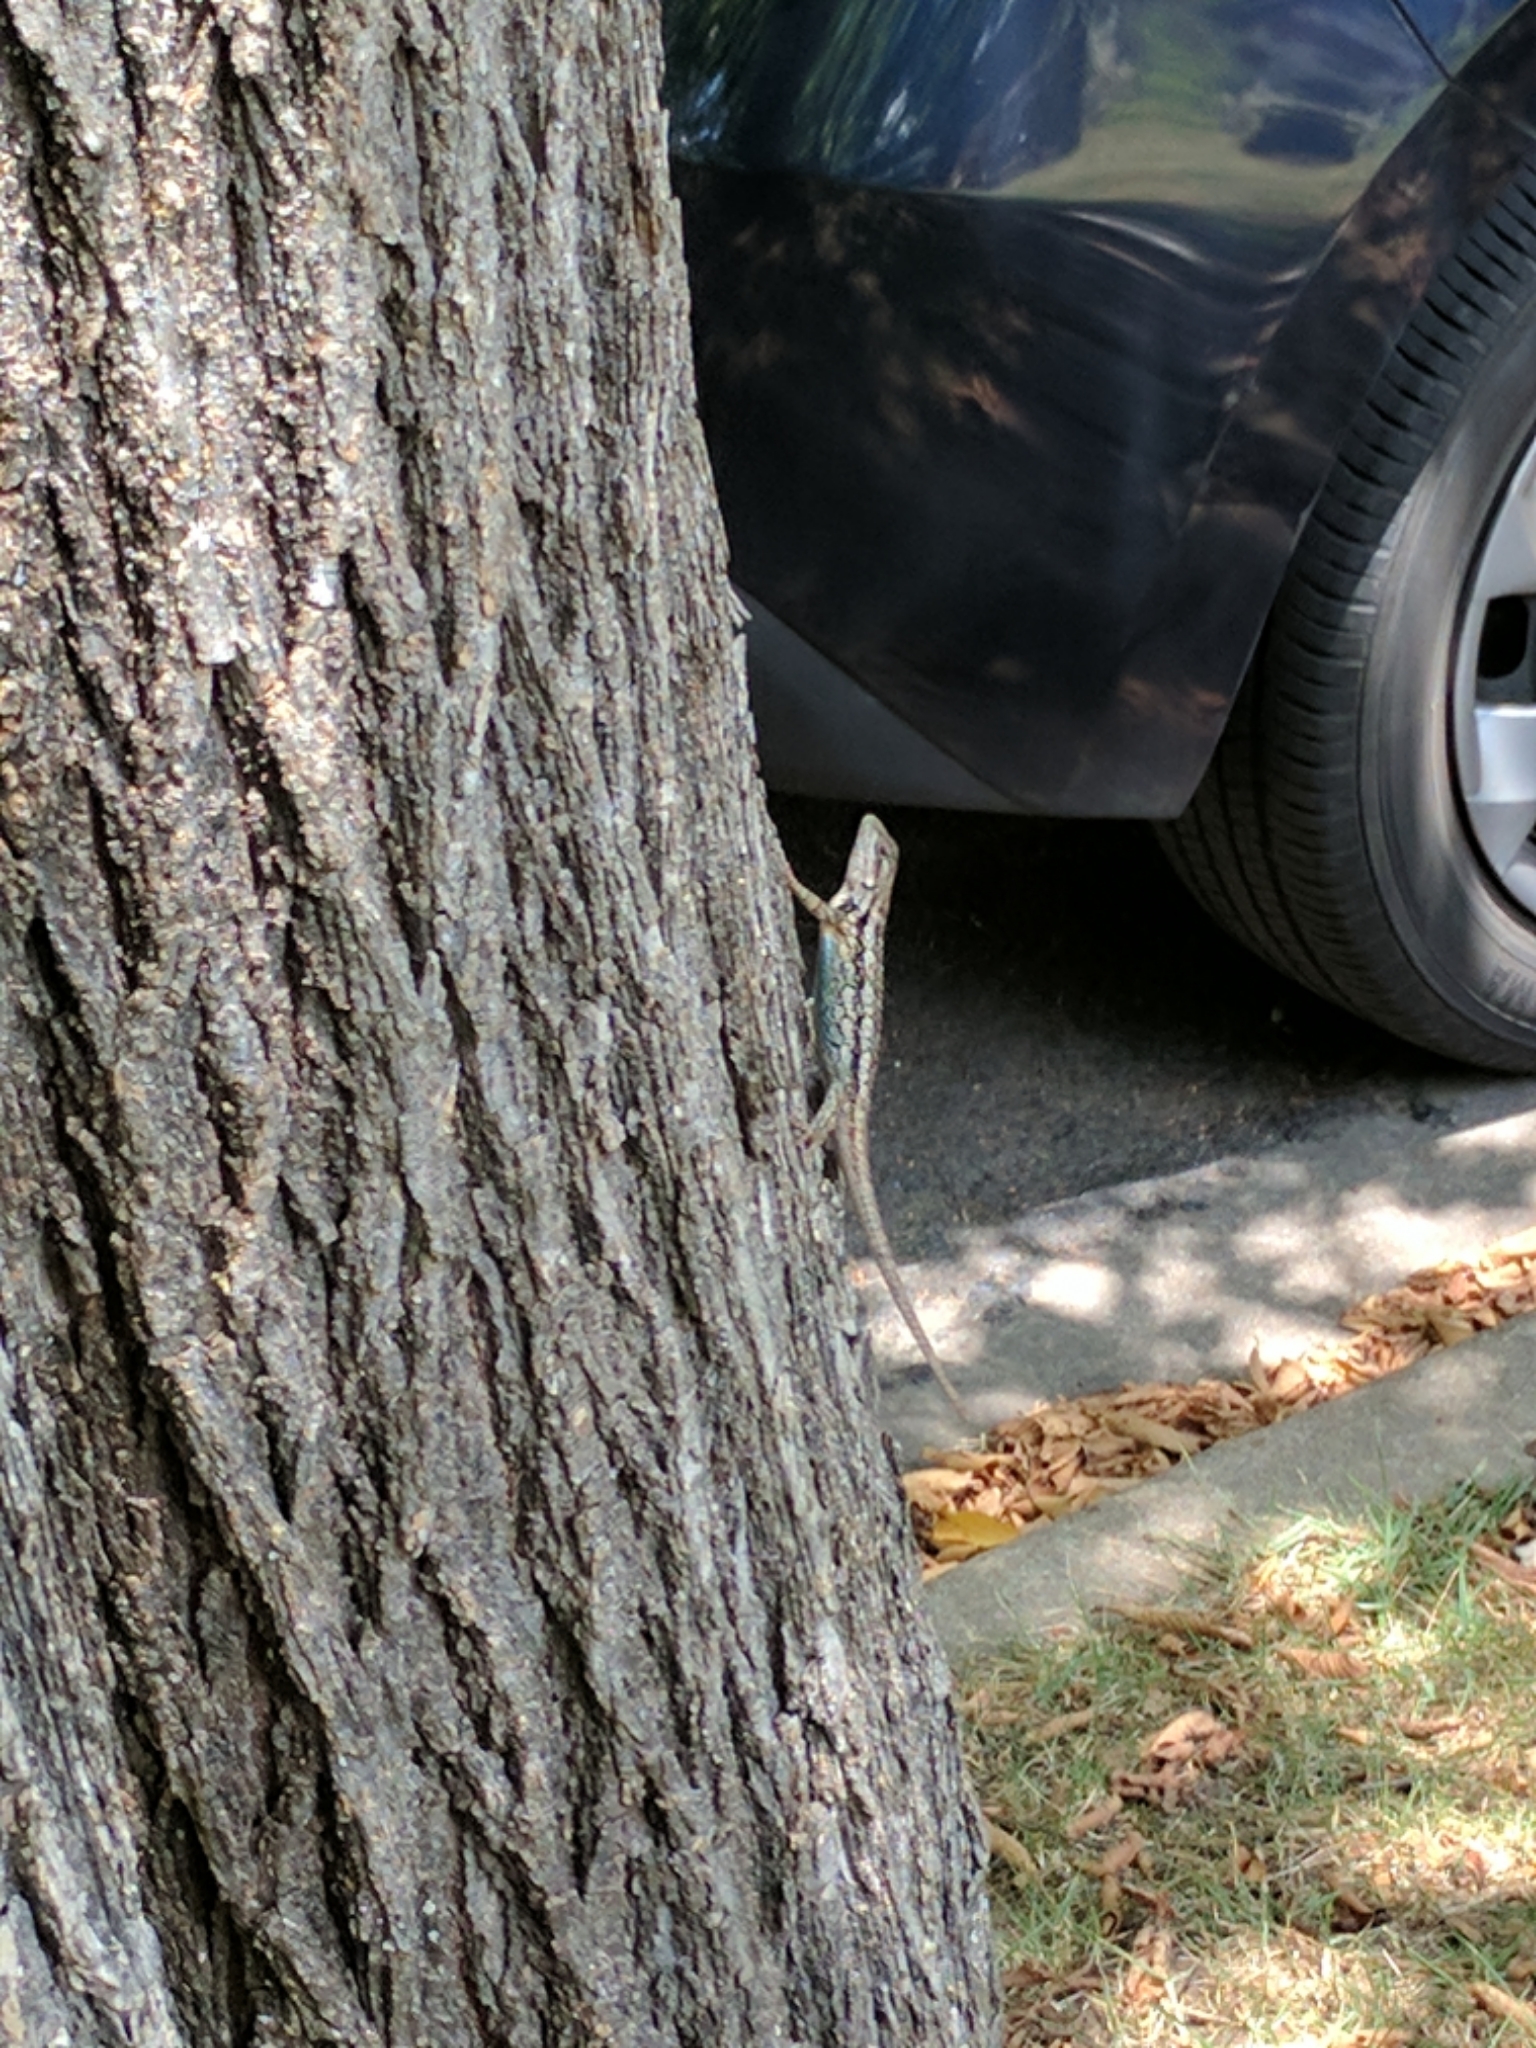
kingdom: Animalia
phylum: Chordata
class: Squamata
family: Phrynosomatidae
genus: Sceloporus
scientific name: Sceloporus olivaceus
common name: Texas spiny lizard
